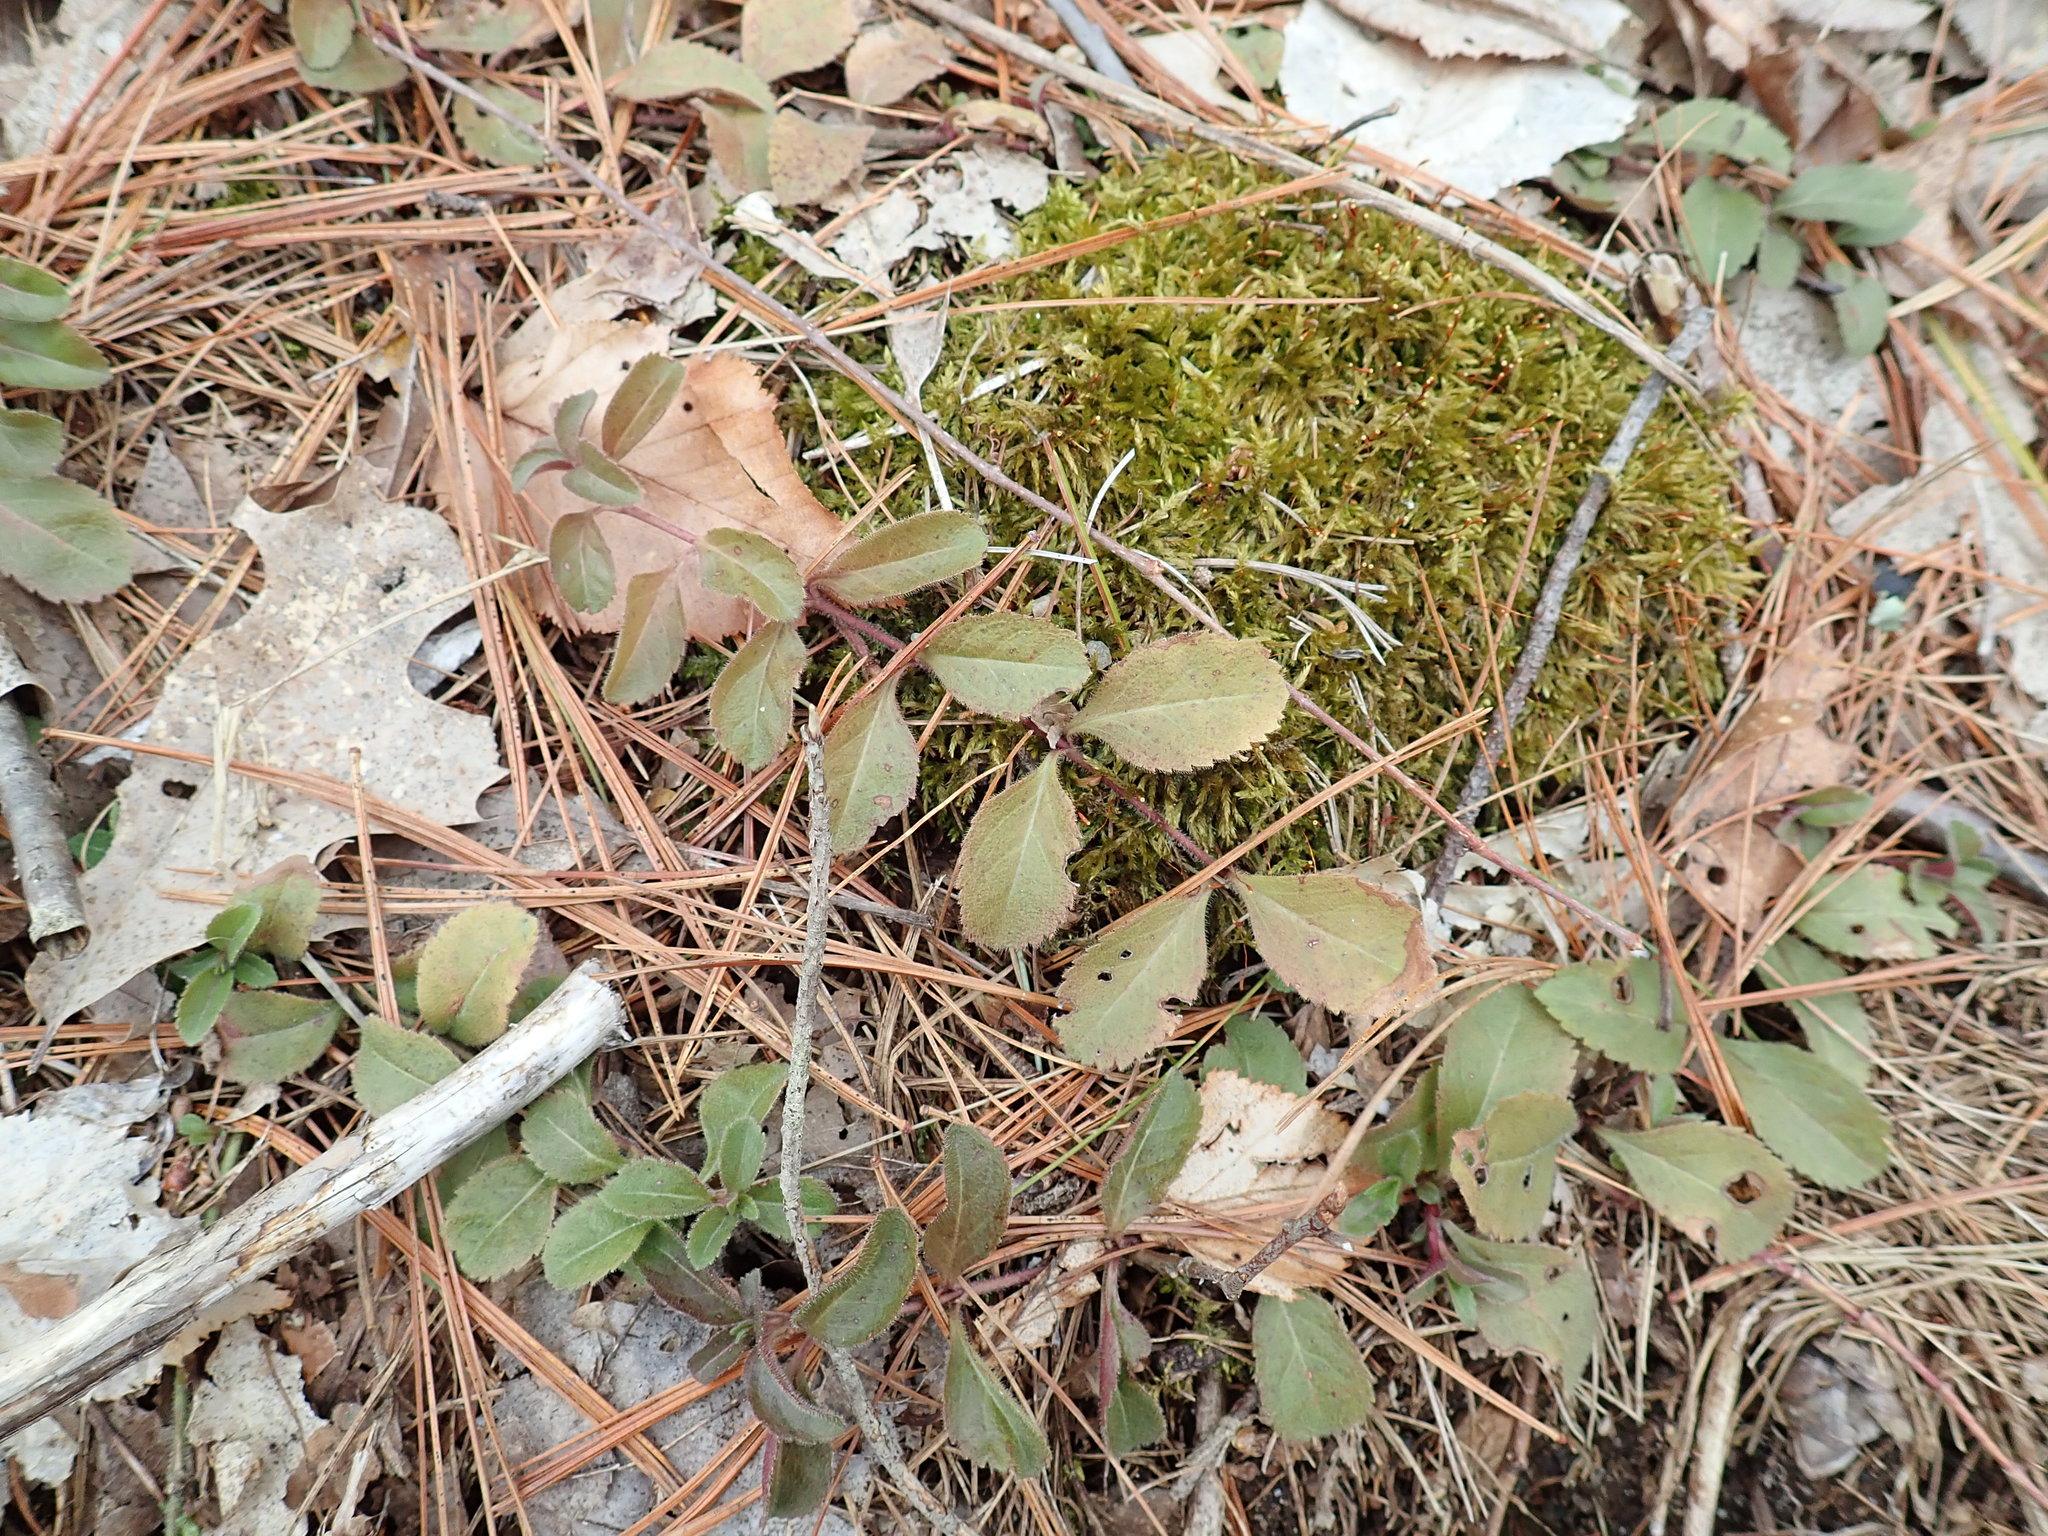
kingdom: Plantae
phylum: Tracheophyta
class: Magnoliopsida
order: Lamiales
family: Plantaginaceae
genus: Veronica
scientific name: Veronica officinalis
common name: Common speedwell
